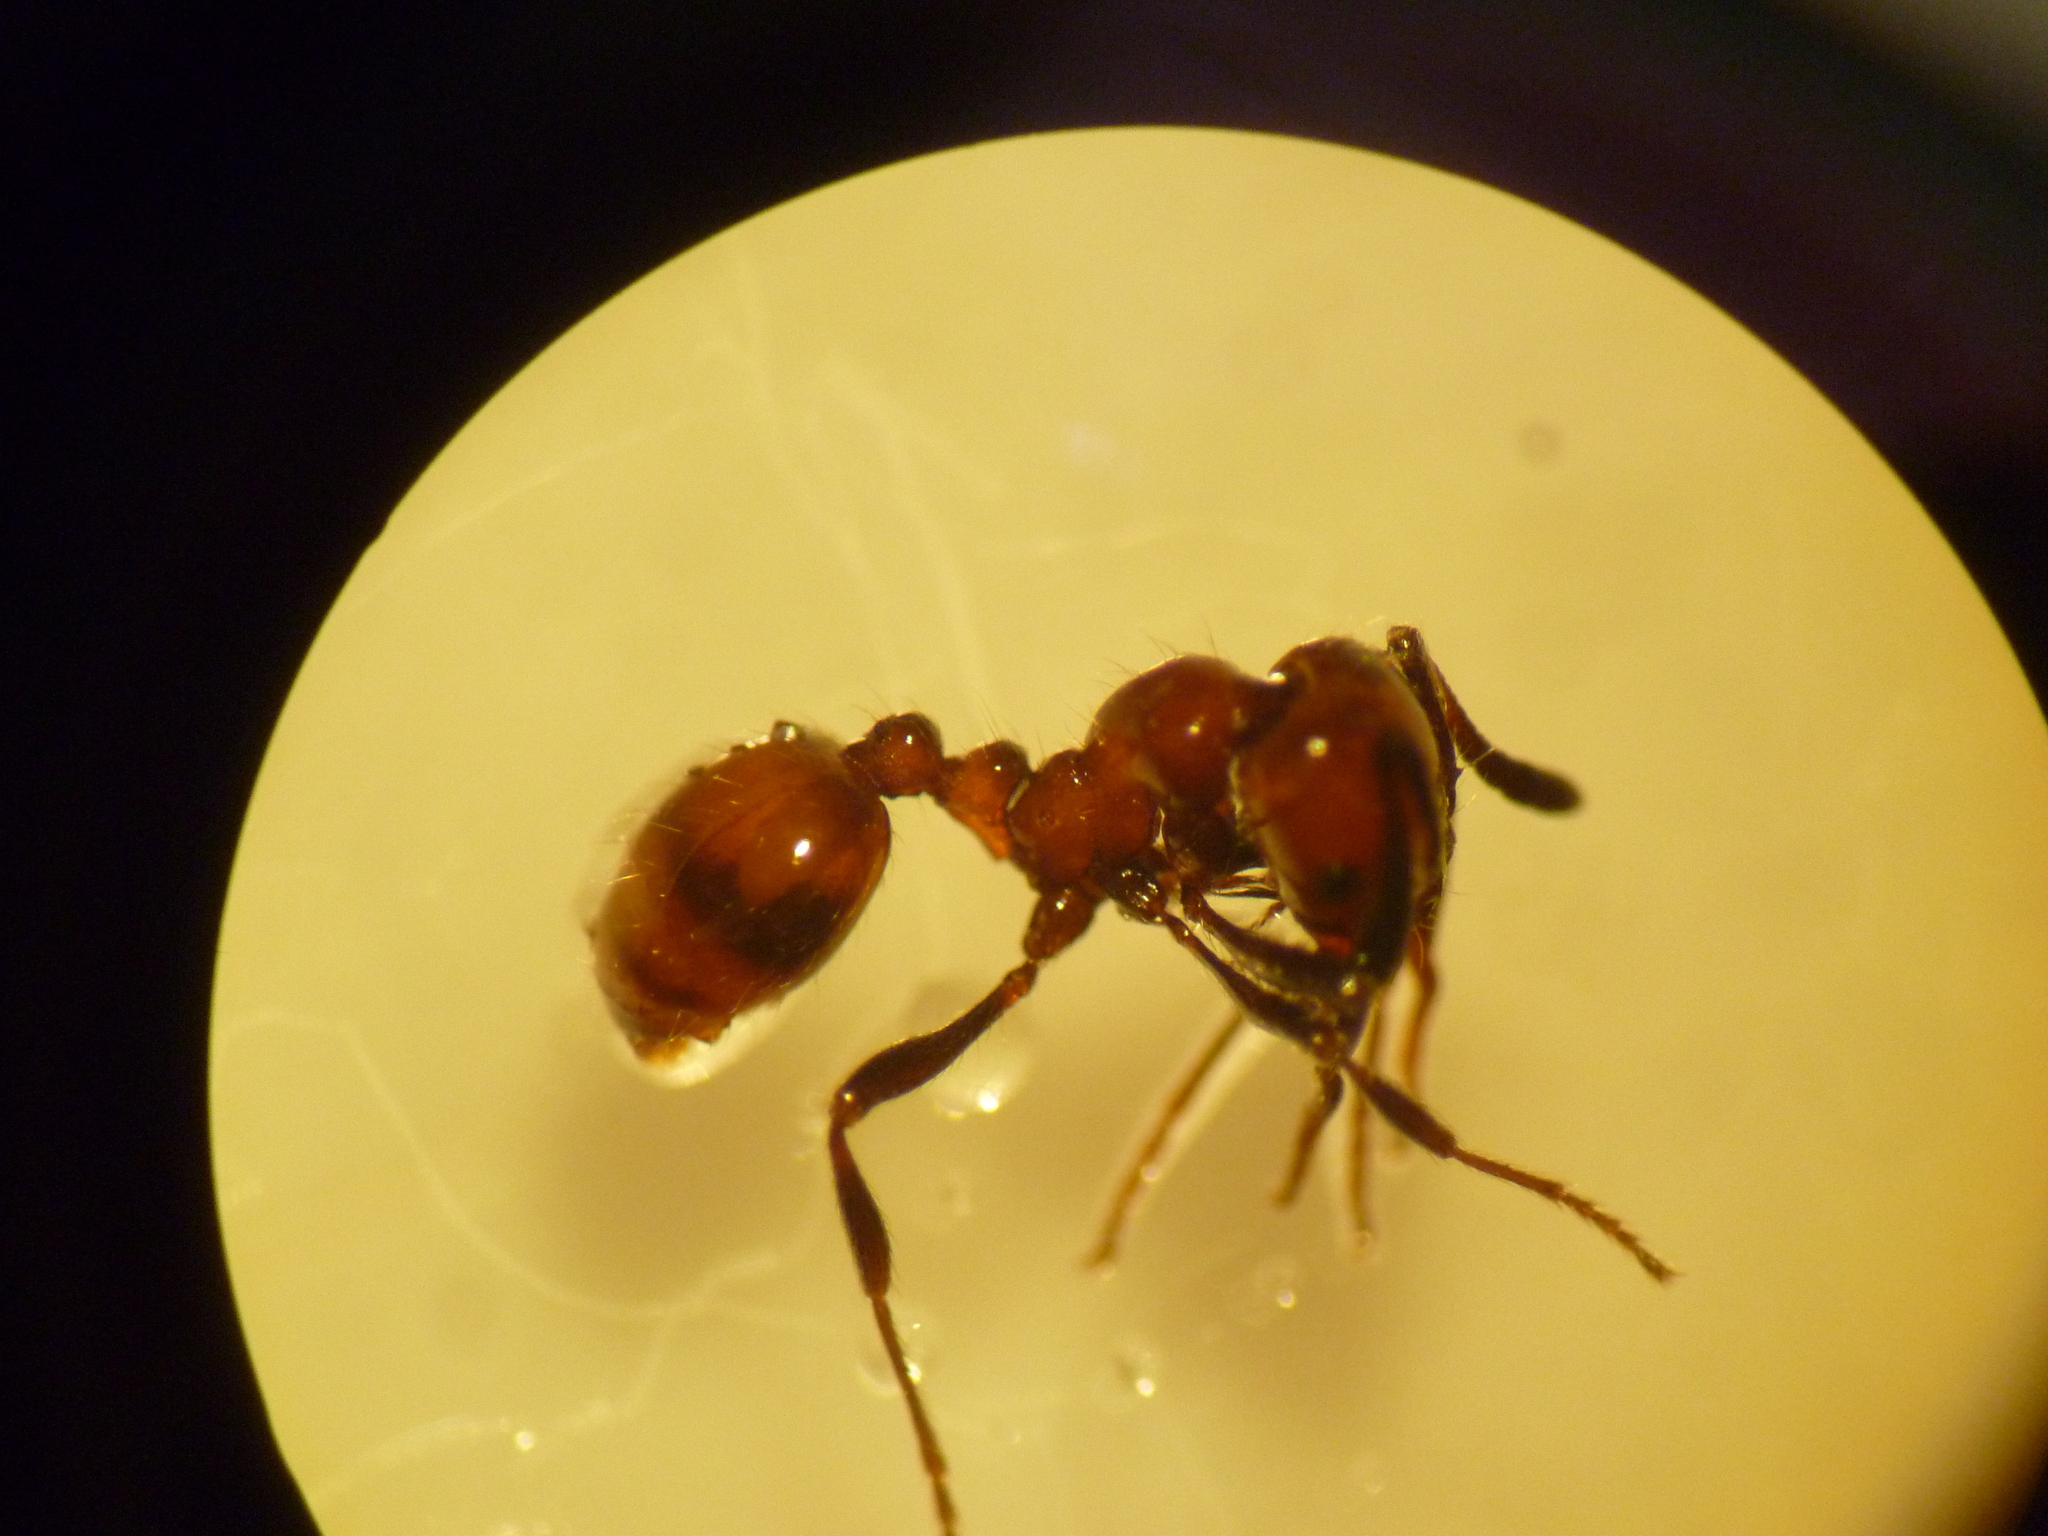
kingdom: Animalia
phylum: Arthropoda
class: Insecta
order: Hymenoptera
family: Formicidae
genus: Monomorium
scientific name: Monomorium antarcticum
